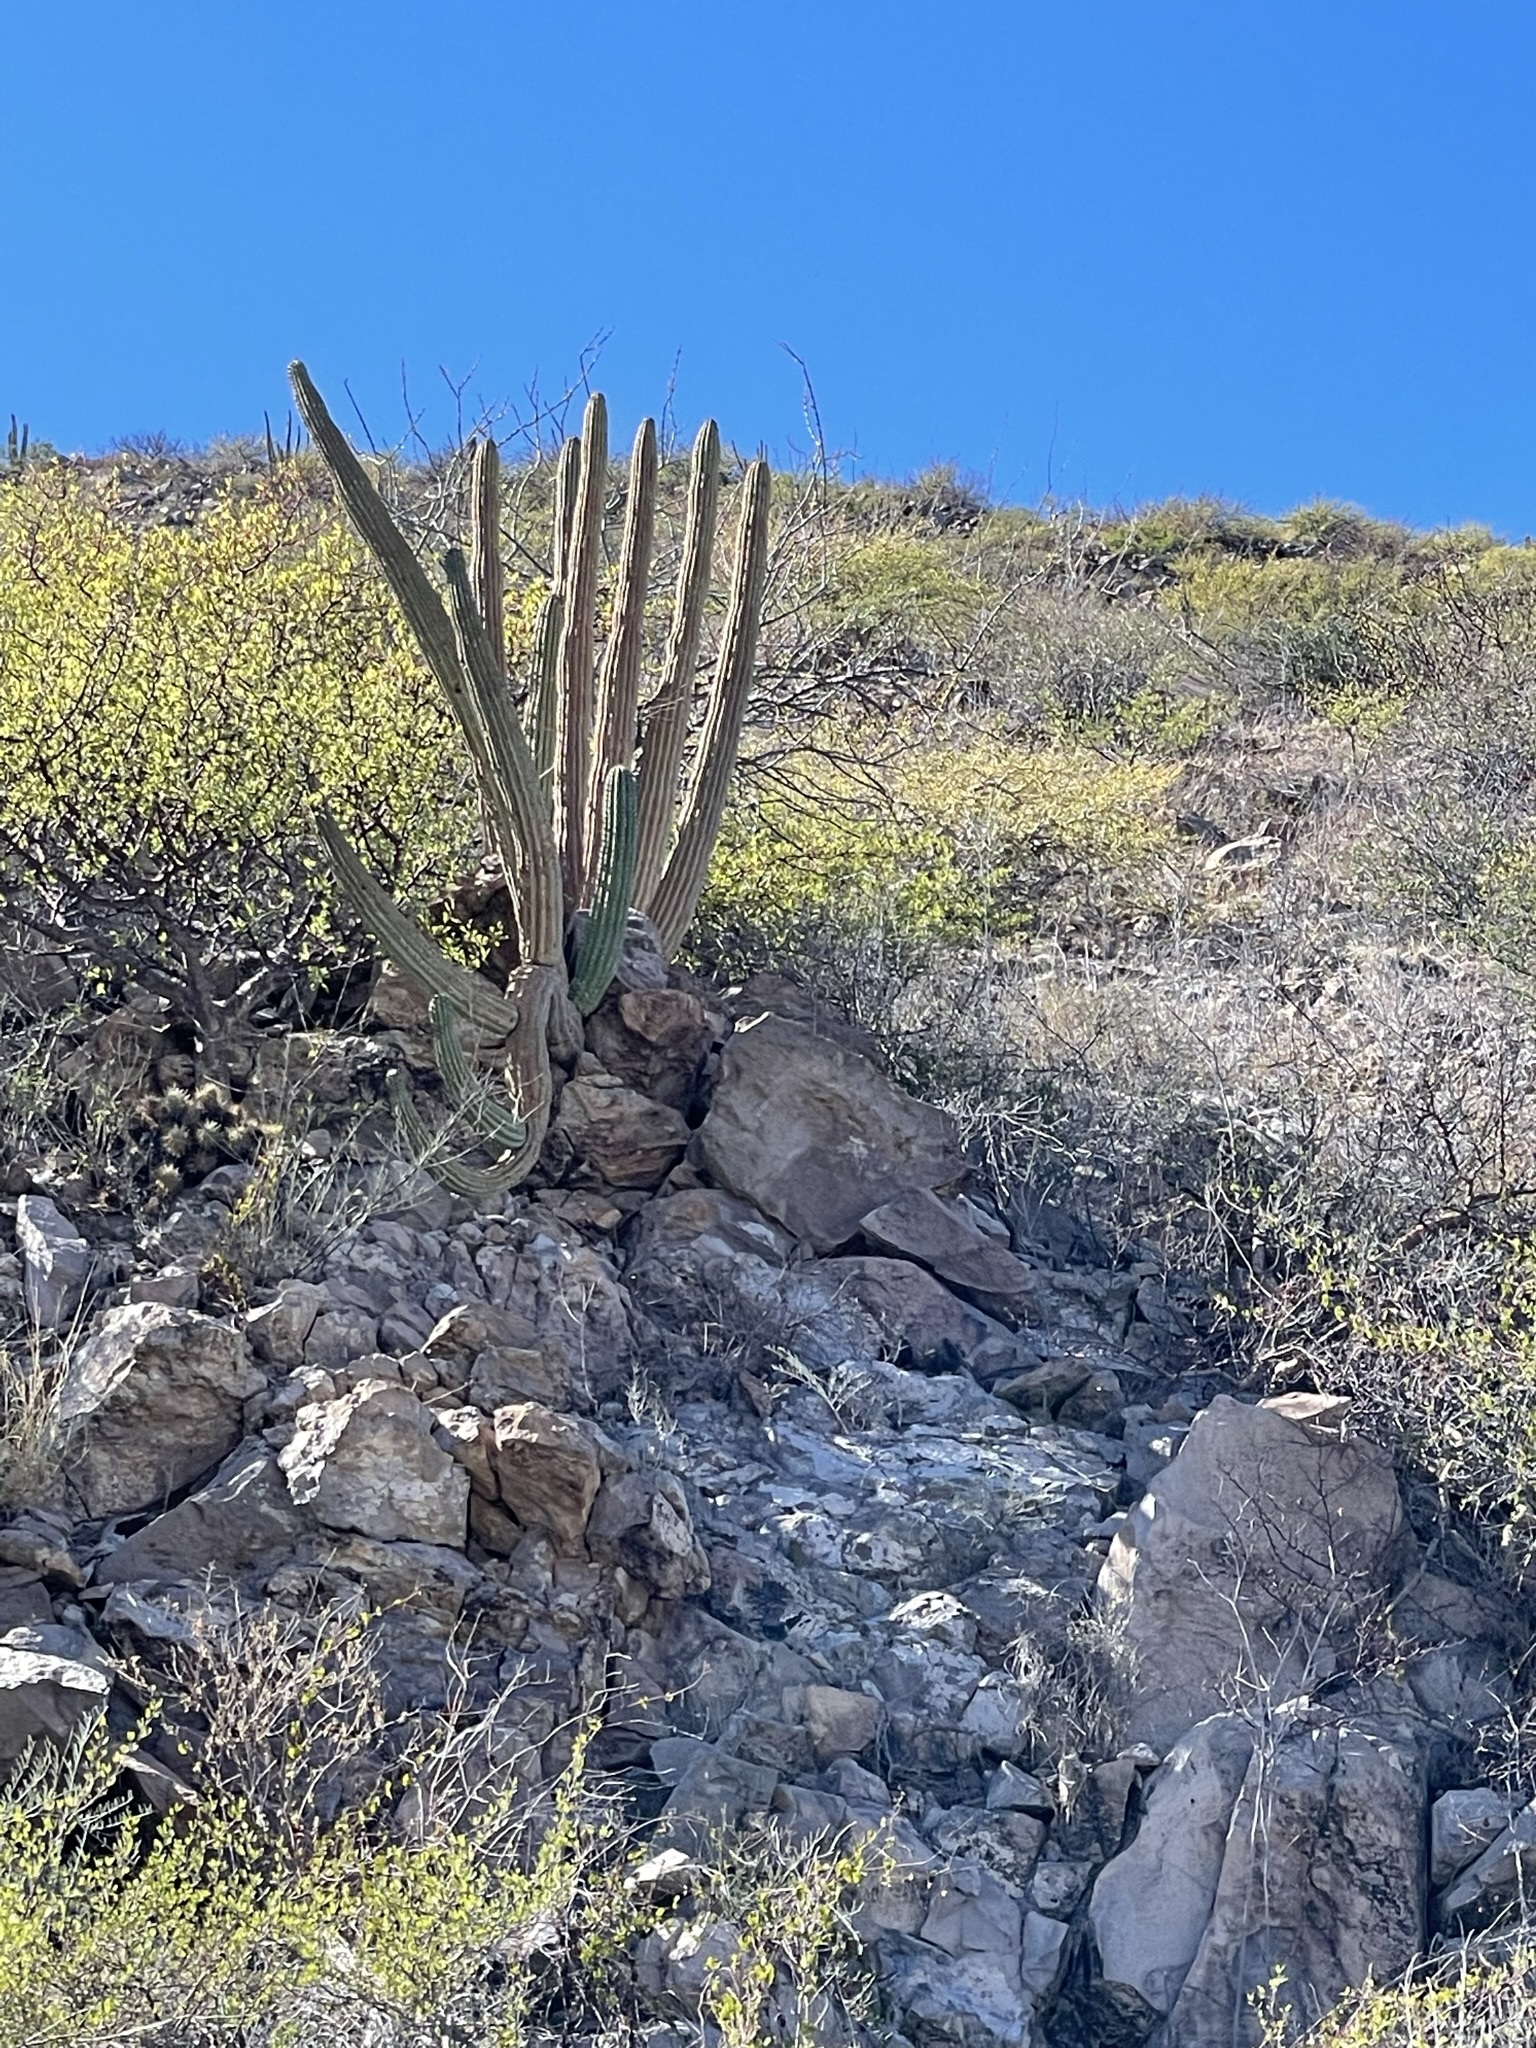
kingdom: Plantae
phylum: Tracheophyta
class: Magnoliopsida
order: Caryophyllales
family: Cactaceae
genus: Stenocereus
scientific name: Stenocereus thurberi
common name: Organ pipe cactus
